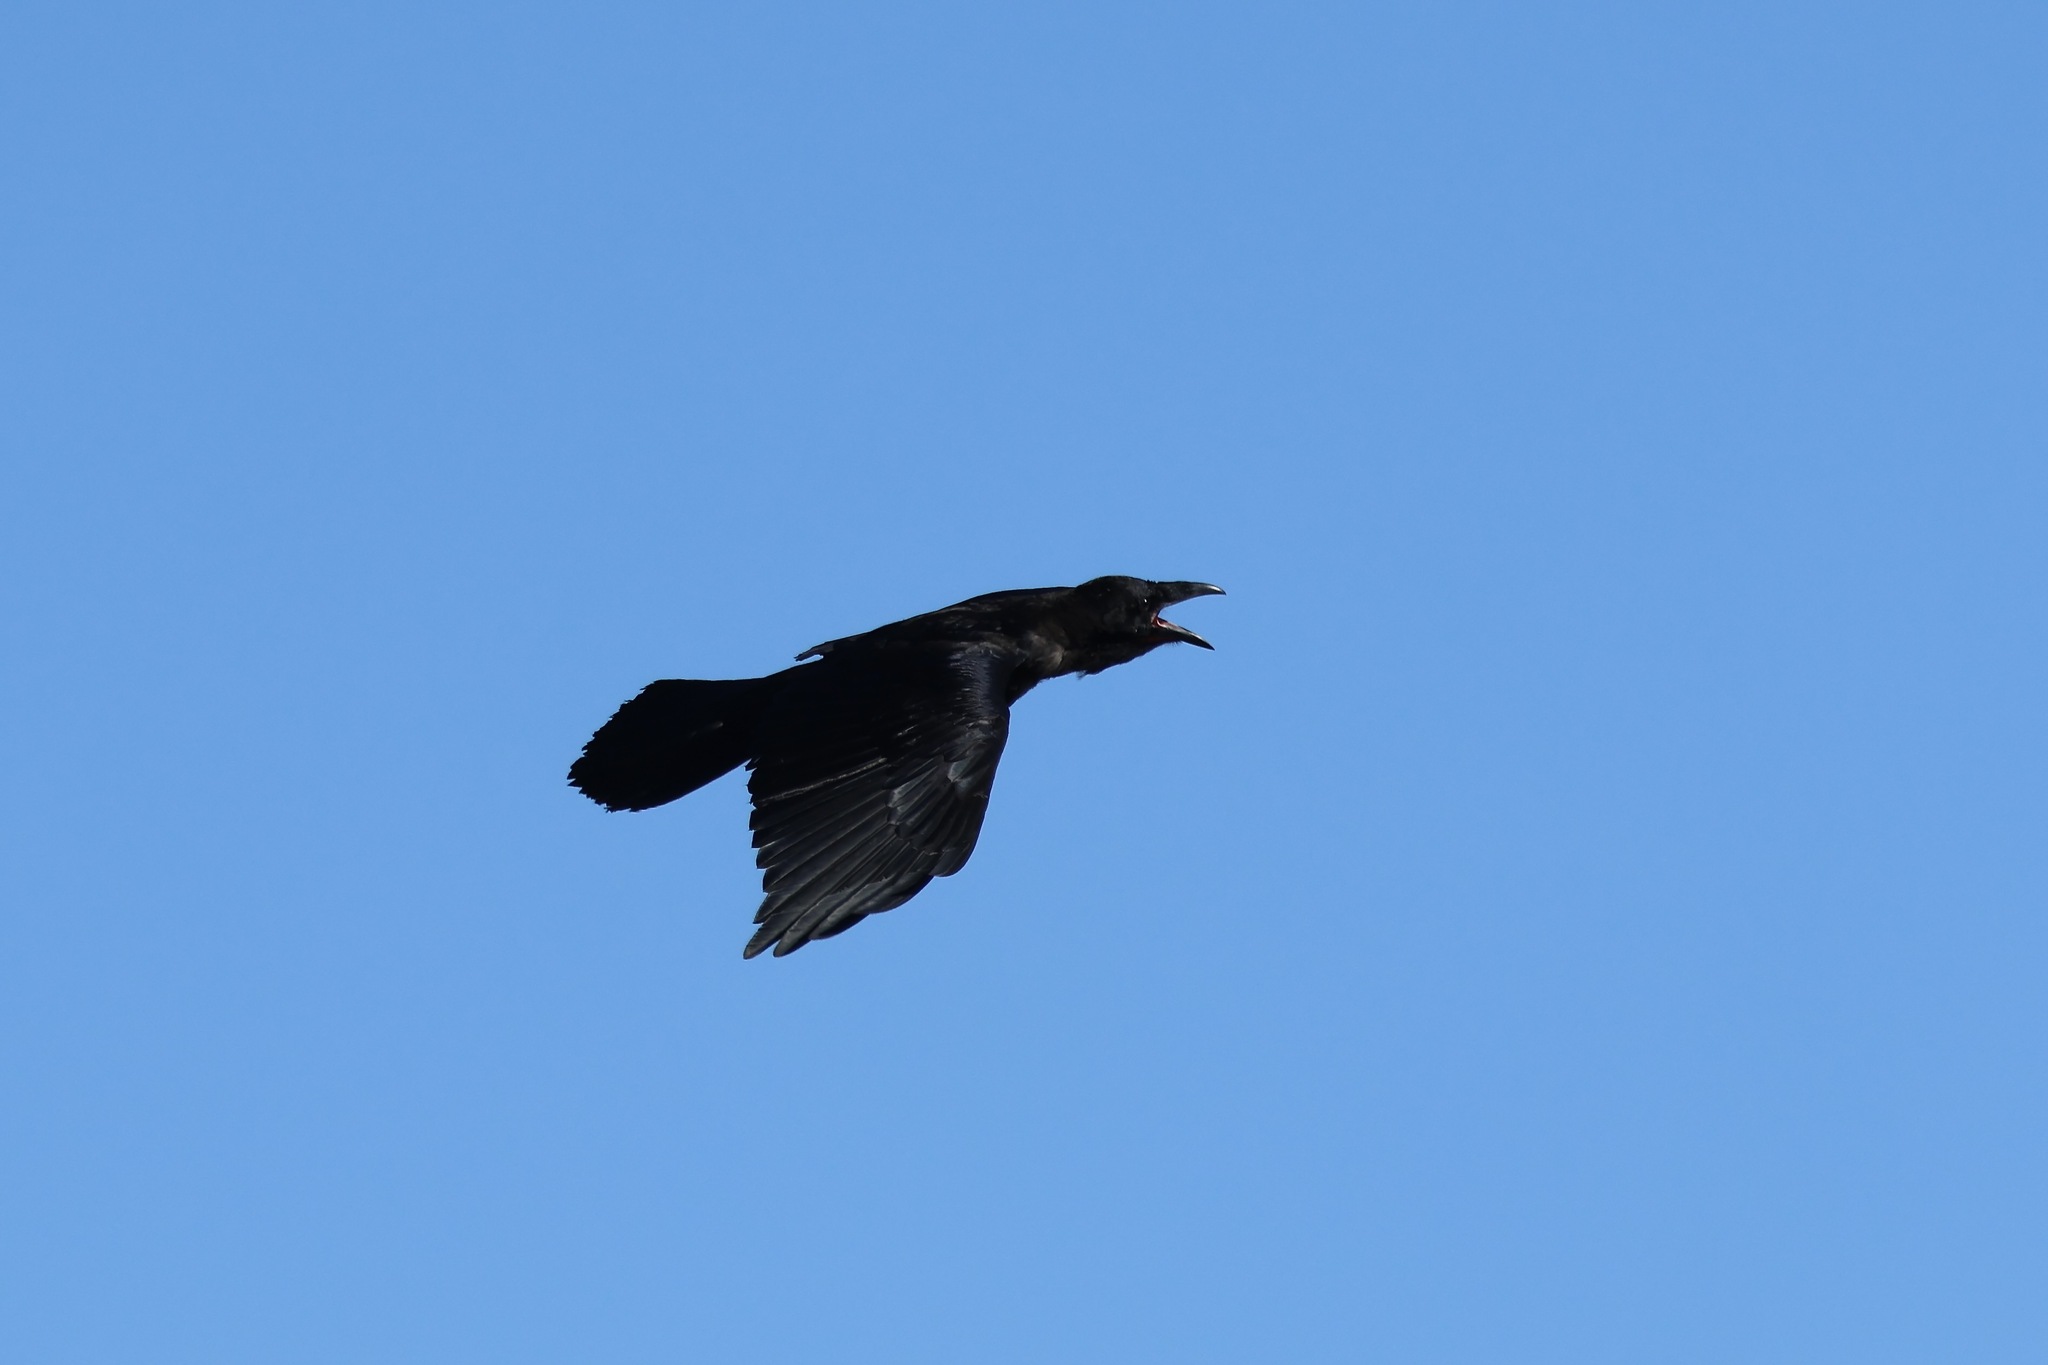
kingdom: Animalia
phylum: Chordata
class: Aves
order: Passeriformes
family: Corvidae
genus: Corvus
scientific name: Corvus corax
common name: Common raven
